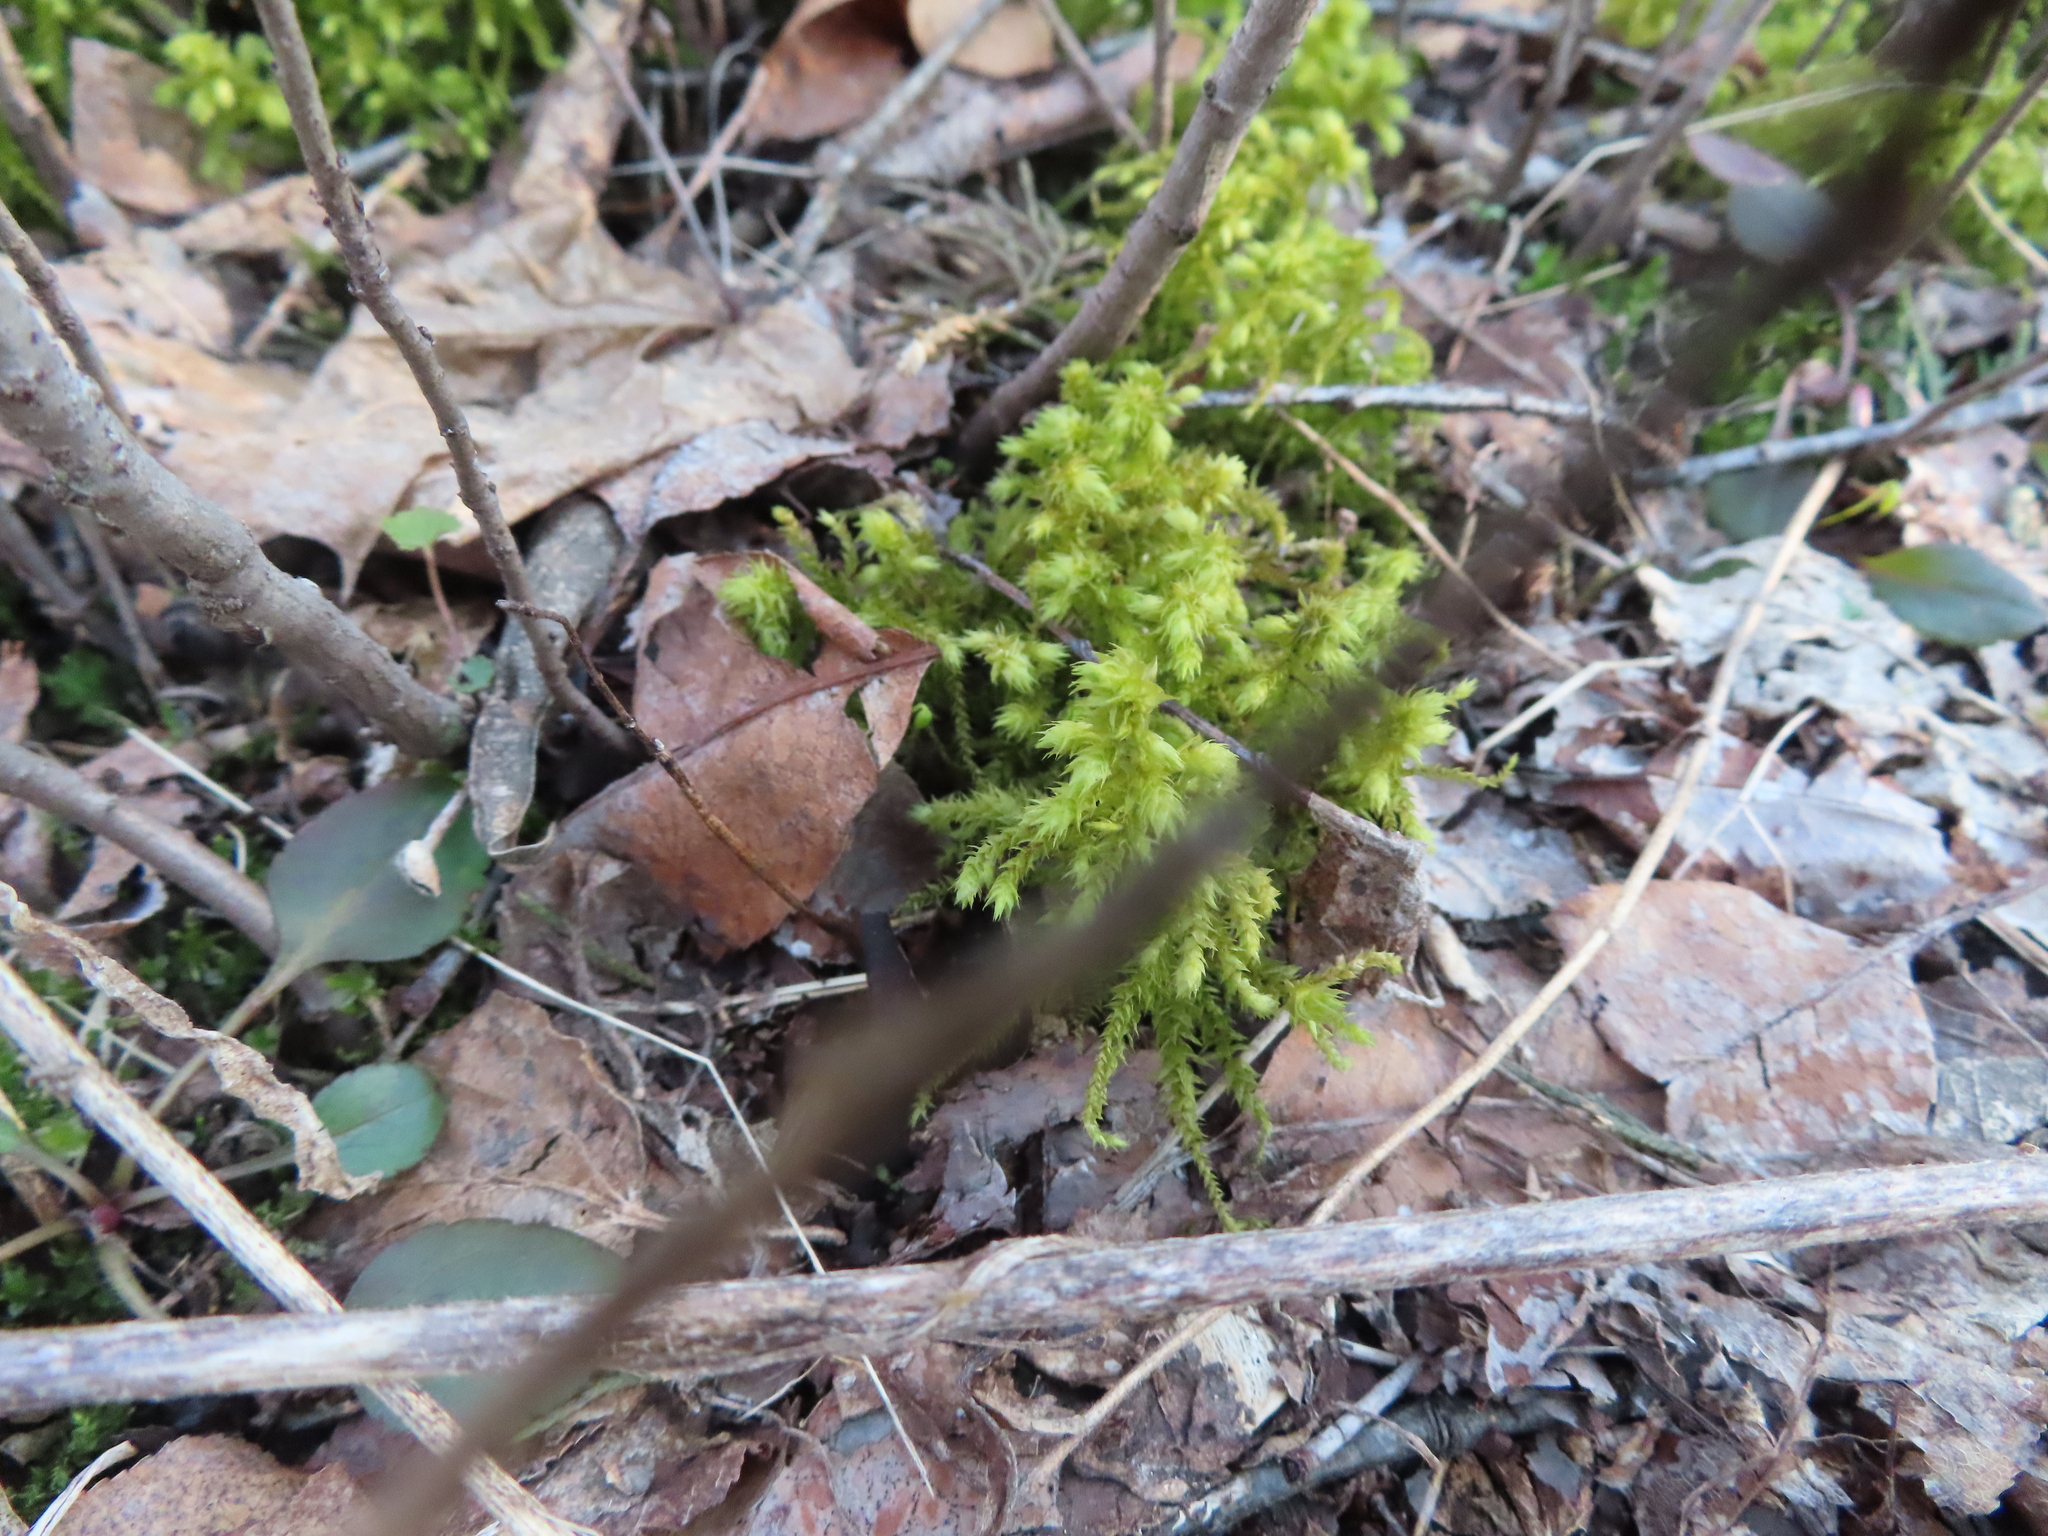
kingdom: Plantae
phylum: Bryophyta
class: Bryopsida
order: Hypnales
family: Hylocomiaceae
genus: Hylocomiadelphus
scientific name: Hylocomiadelphus triquetrus
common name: Rough goose neck moss
